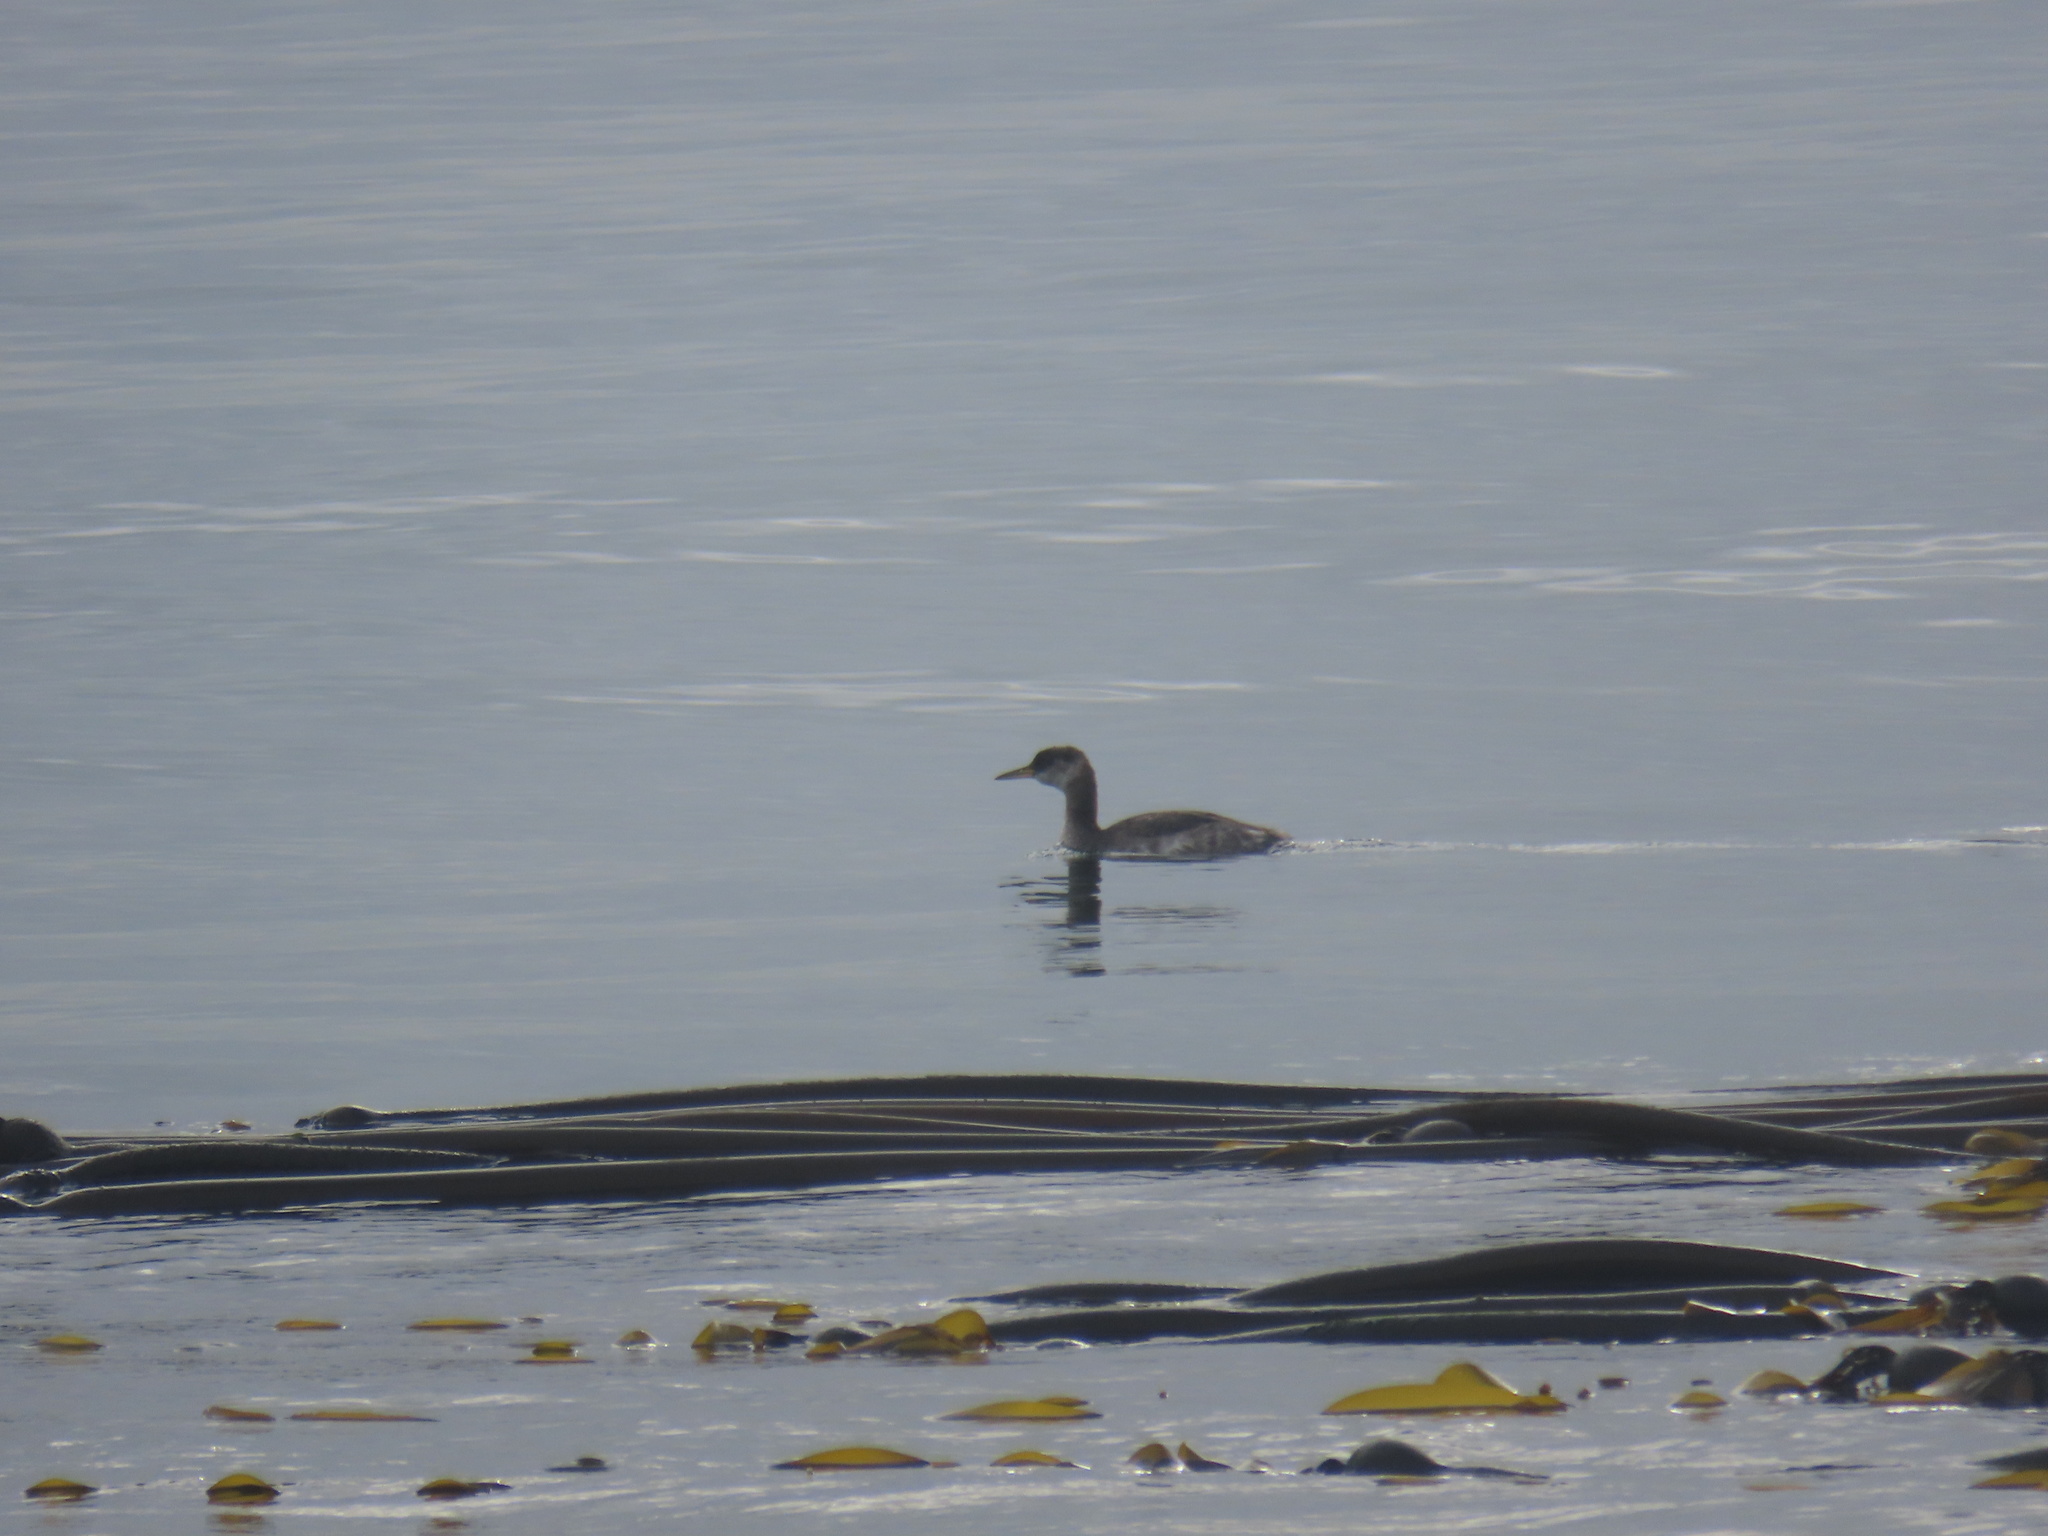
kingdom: Animalia
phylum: Chordata
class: Aves
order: Podicipediformes
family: Podicipedidae
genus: Podiceps
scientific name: Podiceps grisegena
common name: Red-necked grebe
